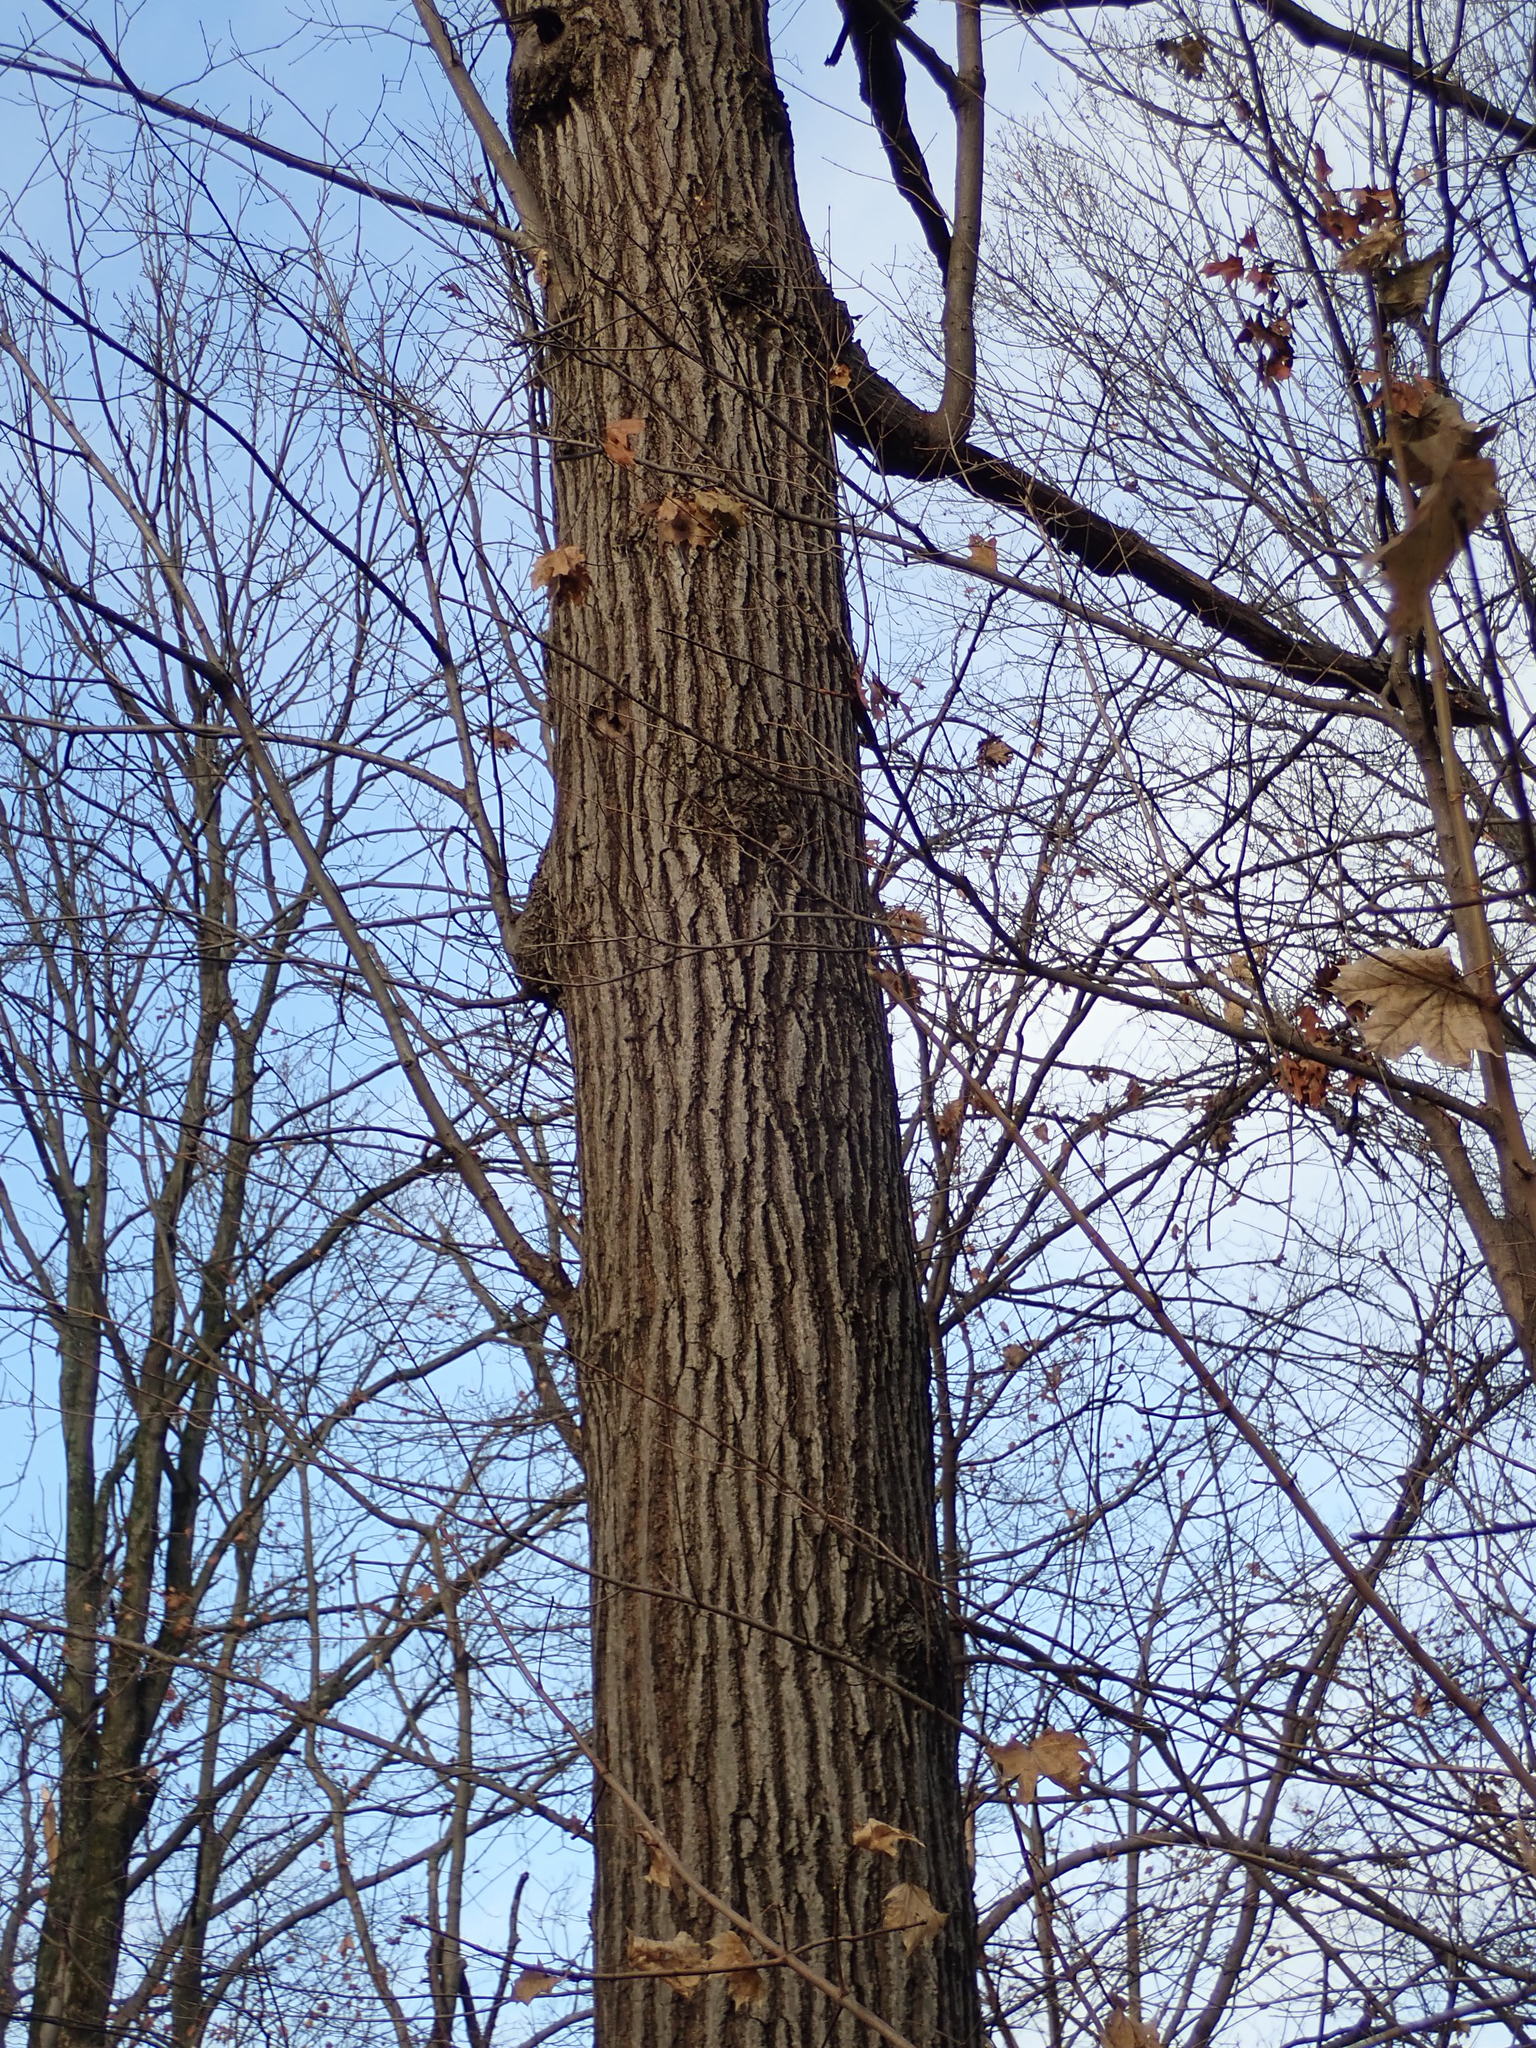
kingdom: Plantae
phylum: Tracheophyta
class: Magnoliopsida
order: Fagales
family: Fagaceae
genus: Quercus
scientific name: Quercus rubra
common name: Red oak
